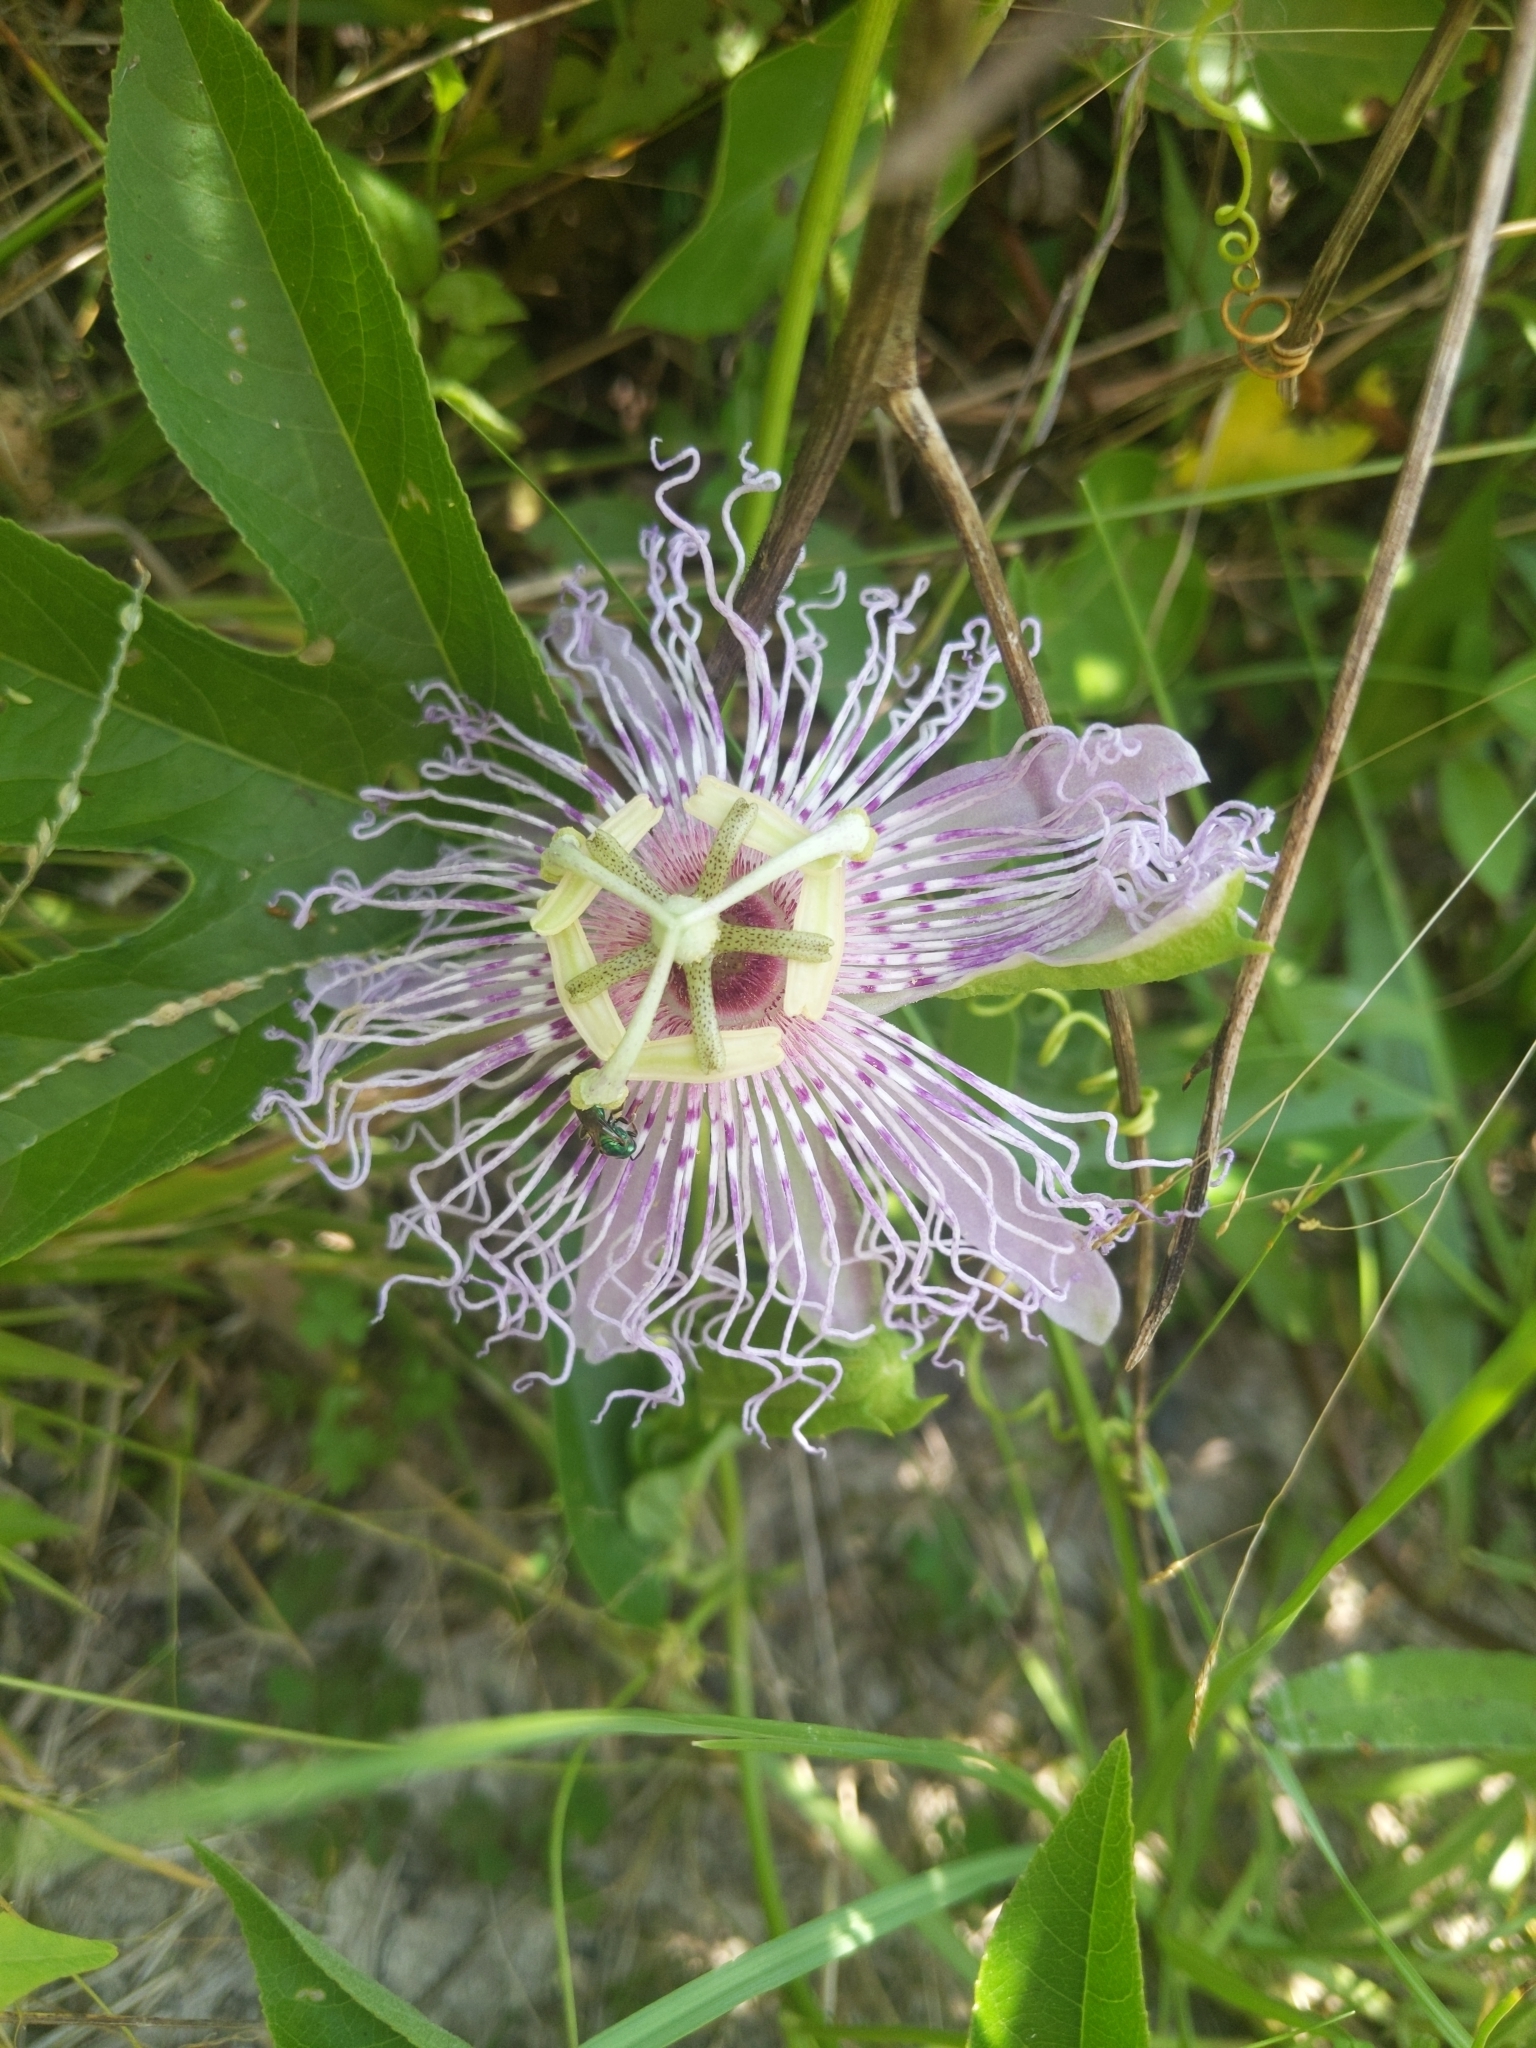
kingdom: Plantae
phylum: Tracheophyta
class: Magnoliopsida
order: Malpighiales
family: Passifloraceae
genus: Passiflora
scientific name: Passiflora incarnata
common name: Apricot-vine
